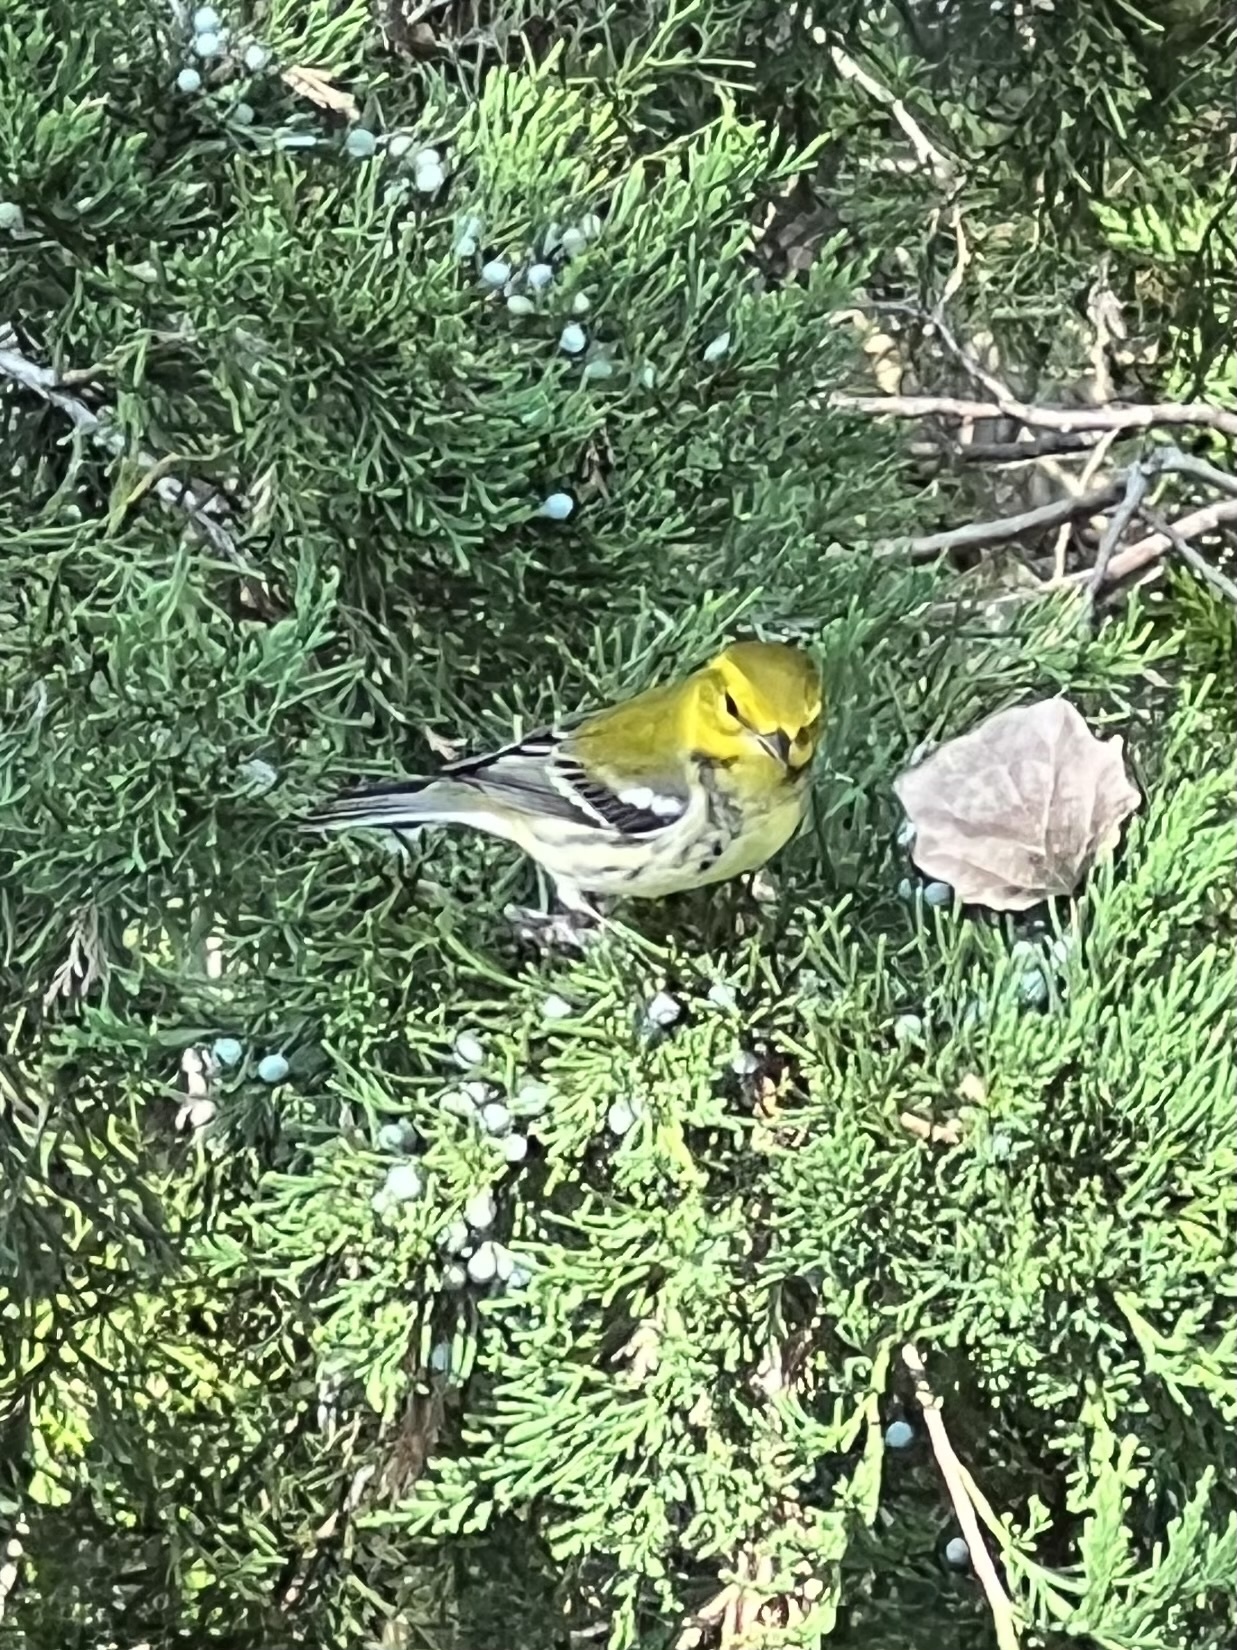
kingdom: Animalia
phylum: Chordata
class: Aves
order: Passeriformes
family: Parulidae
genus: Setophaga
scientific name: Setophaga virens
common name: Black-throated green warbler
